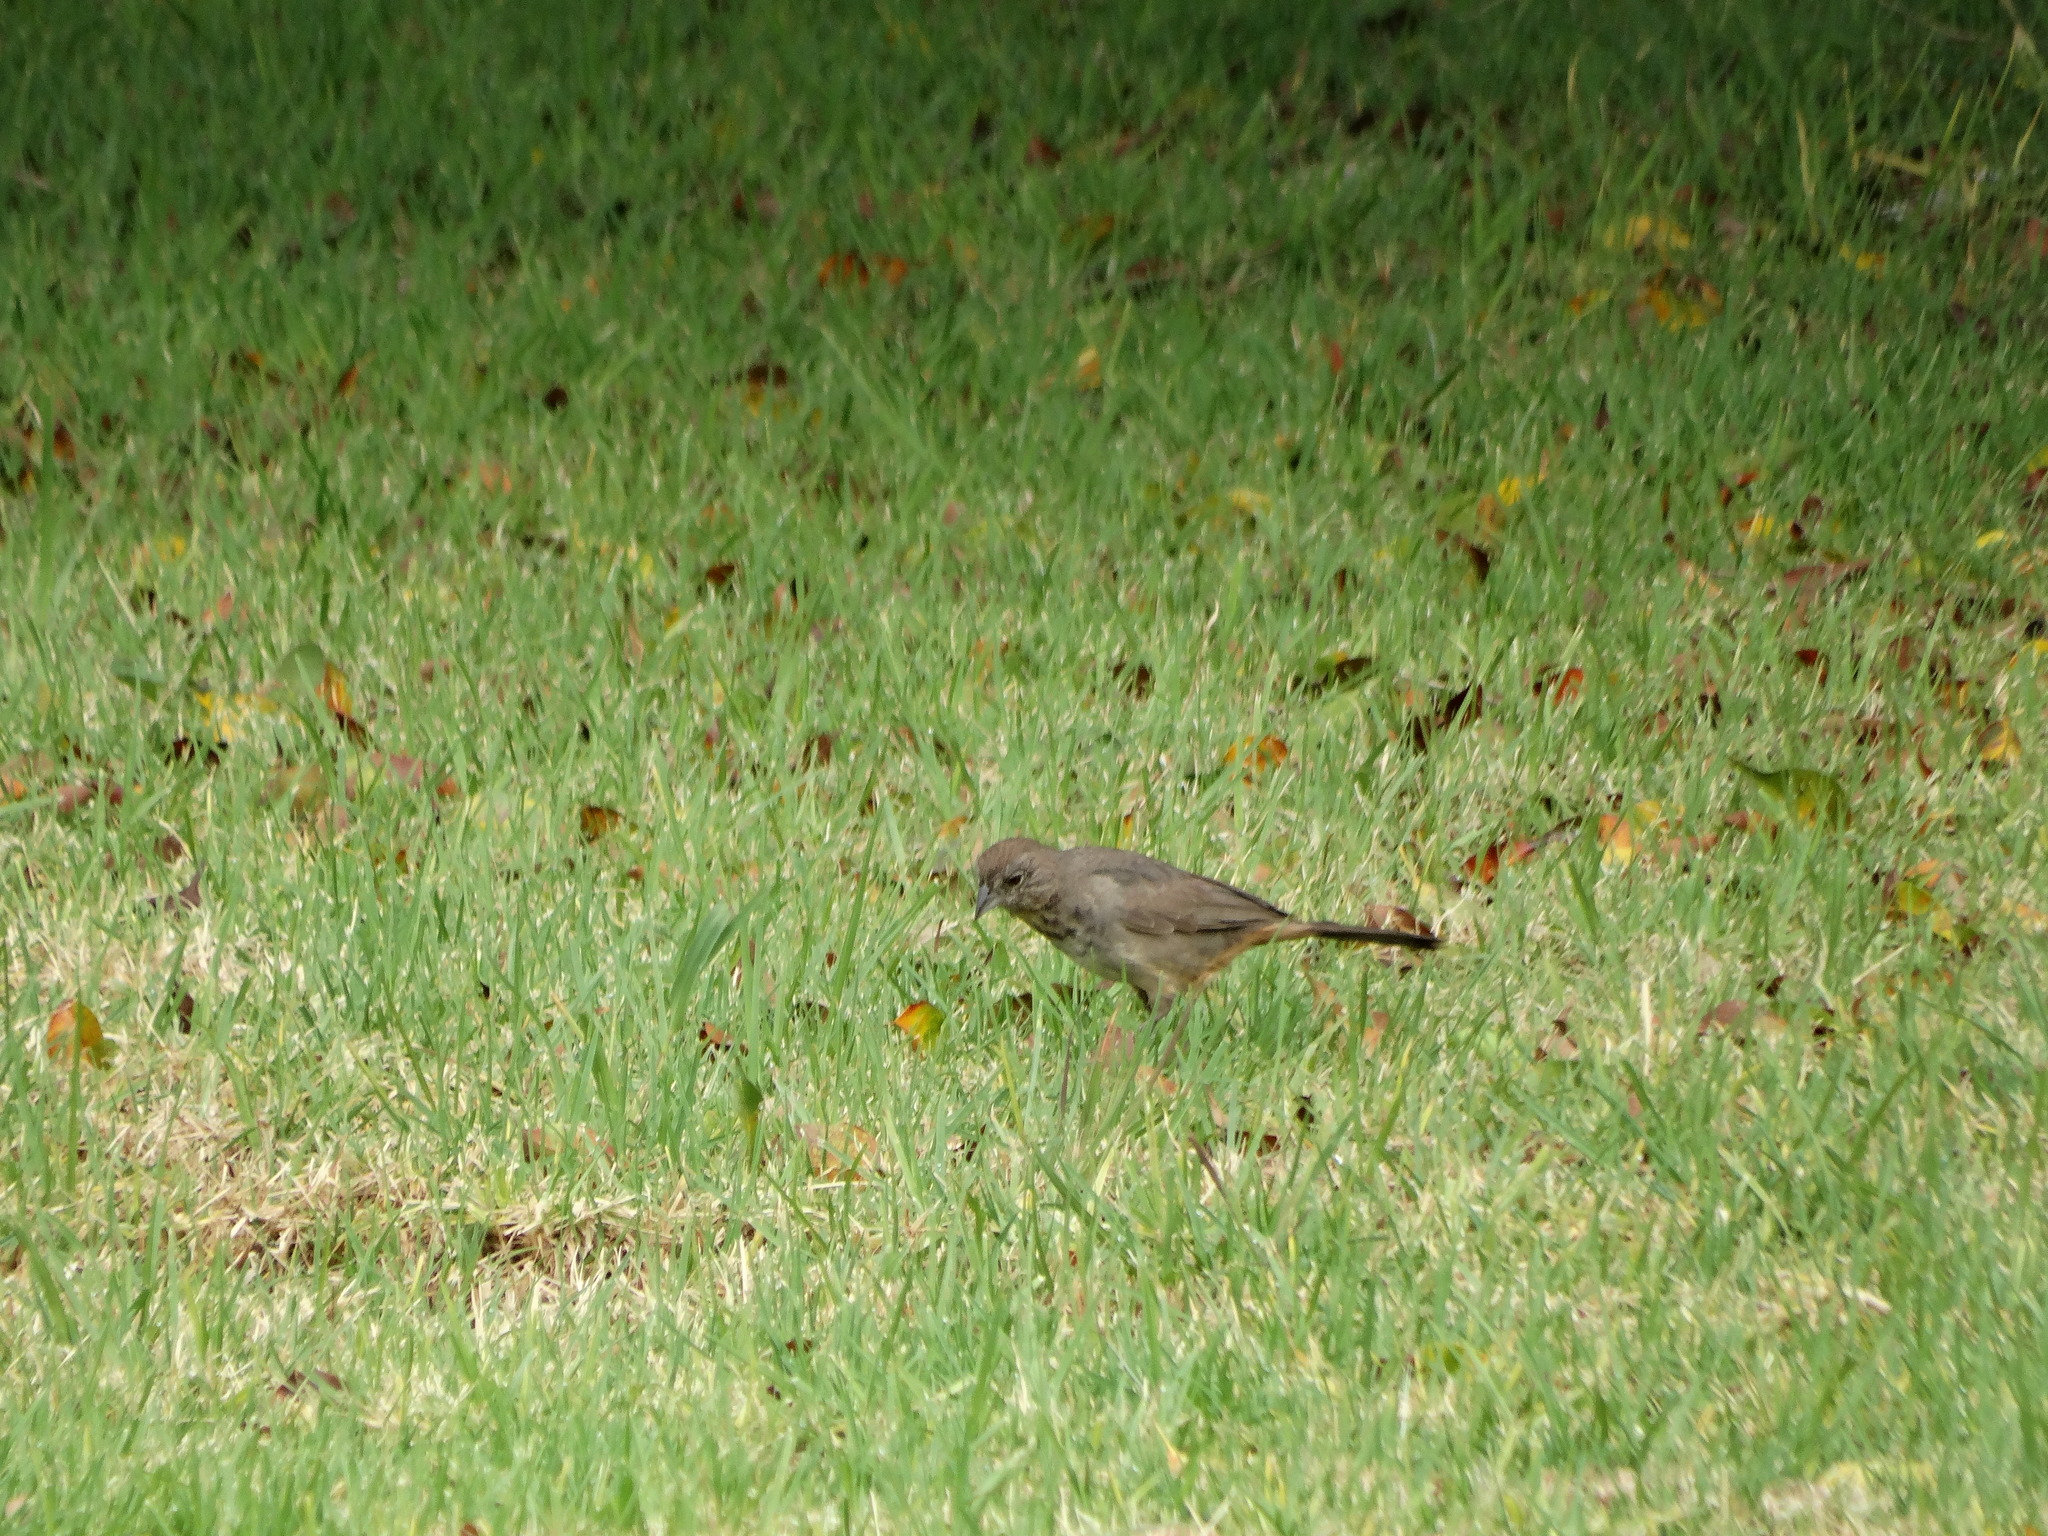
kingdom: Animalia
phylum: Chordata
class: Aves
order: Passeriformes
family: Passerellidae
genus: Melozone
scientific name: Melozone fusca
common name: Canyon towhee
